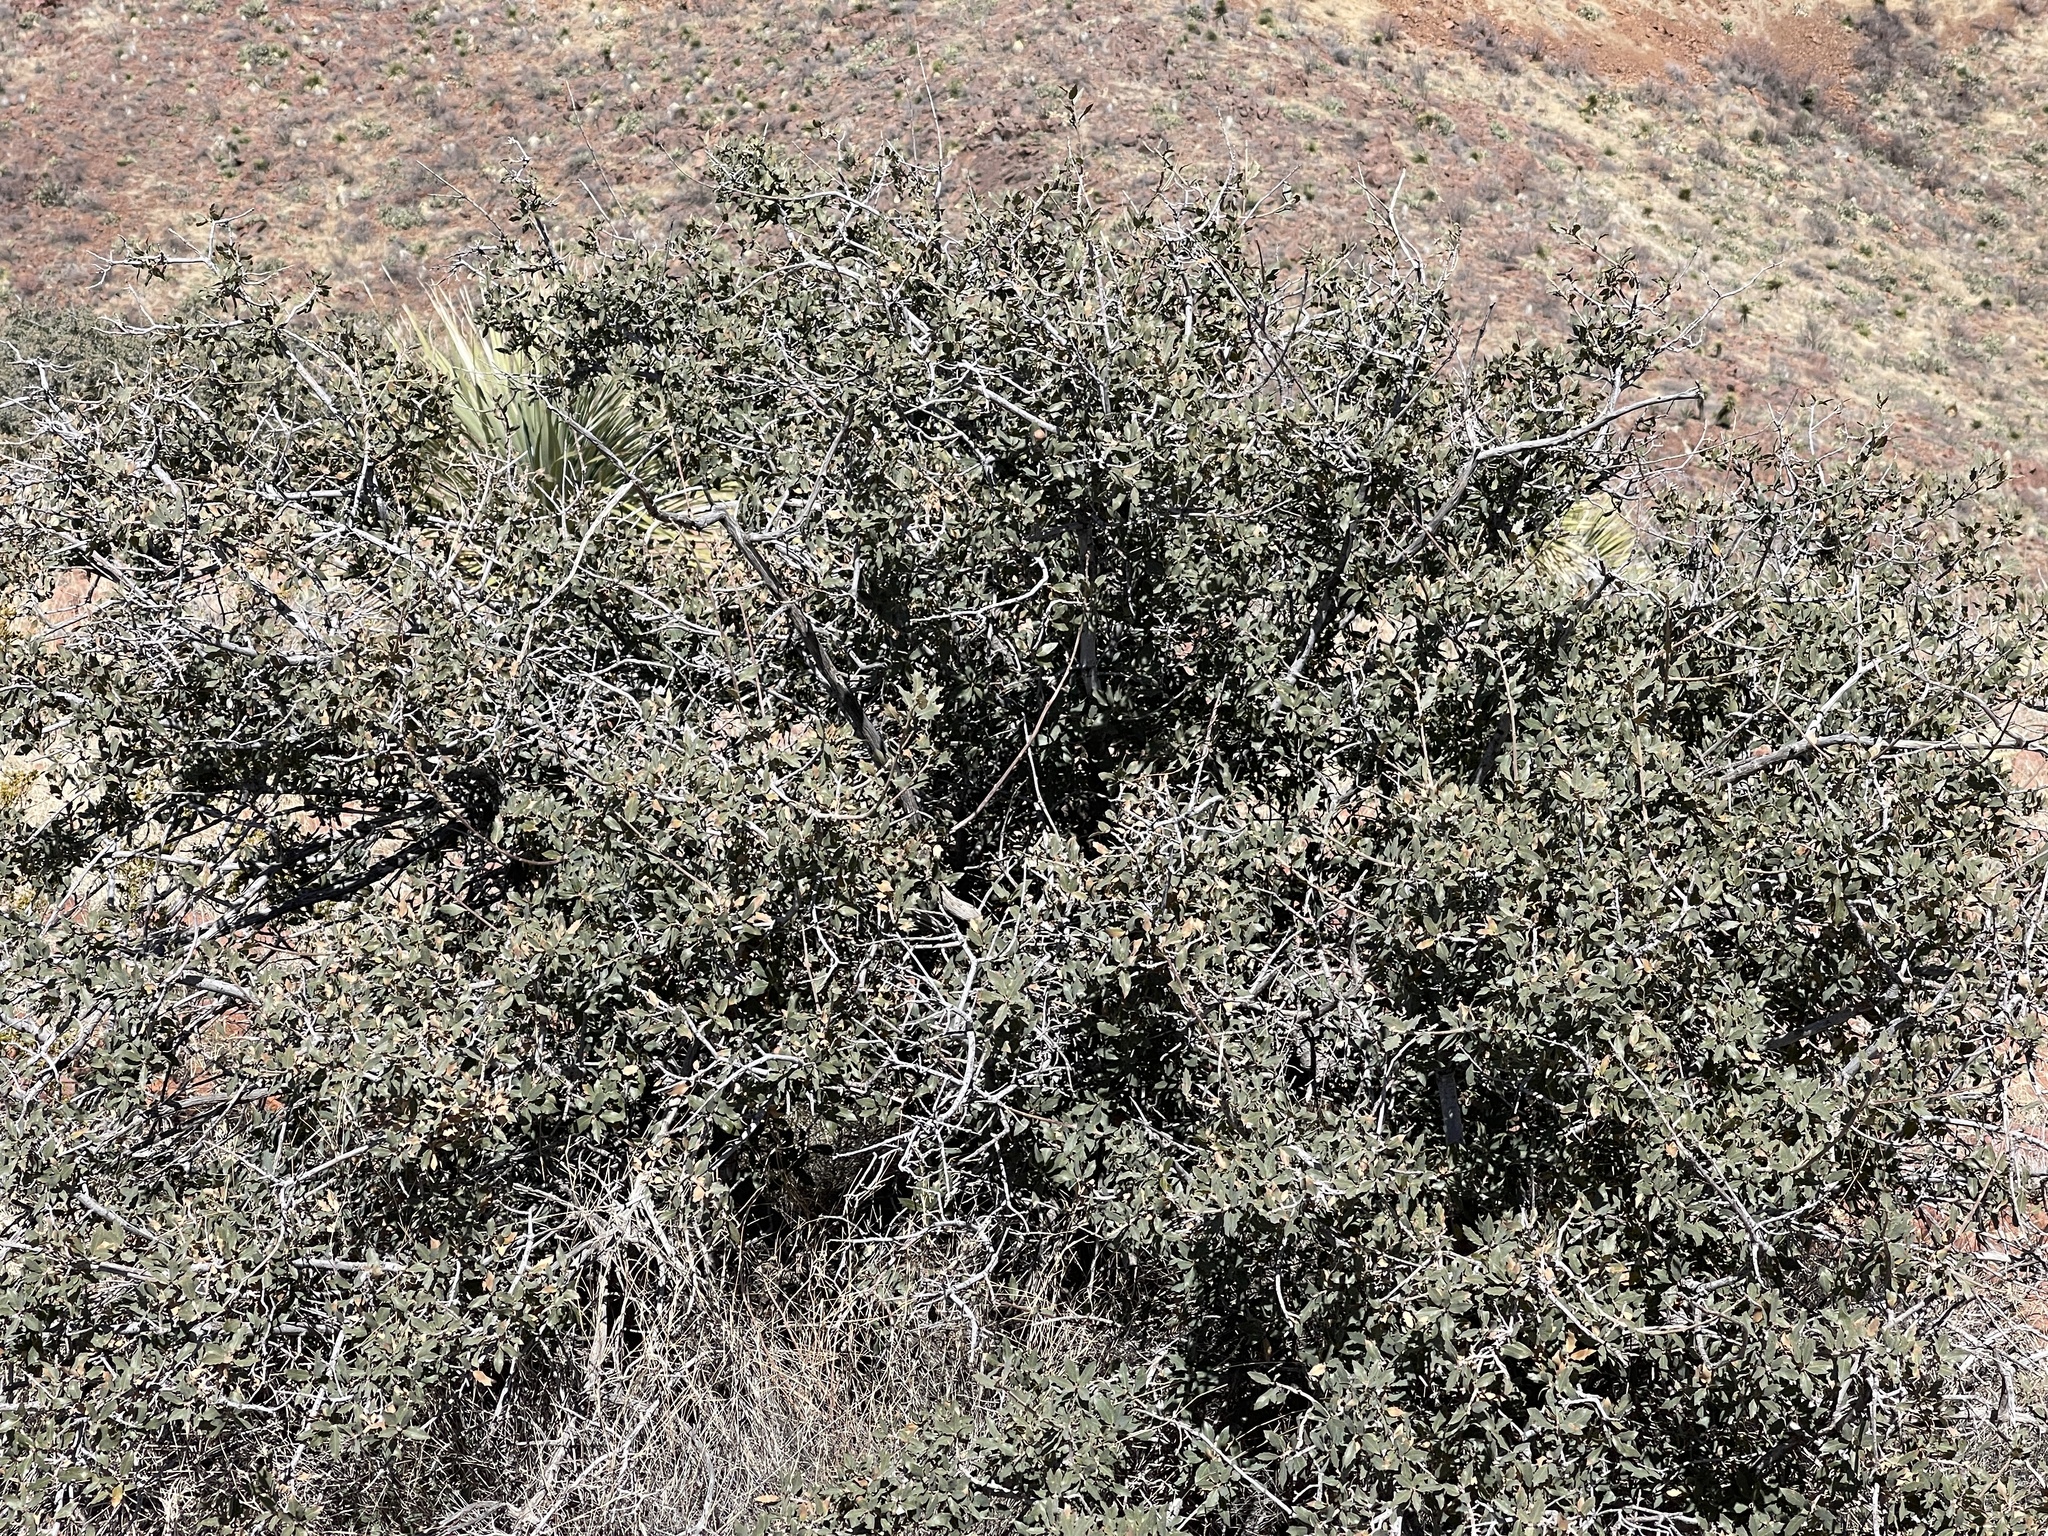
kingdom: Plantae
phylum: Tracheophyta
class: Magnoliopsida
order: Fagales
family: Fagaceae
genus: Quercus
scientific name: Quercus turbinella
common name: Sonoran scrub oak
